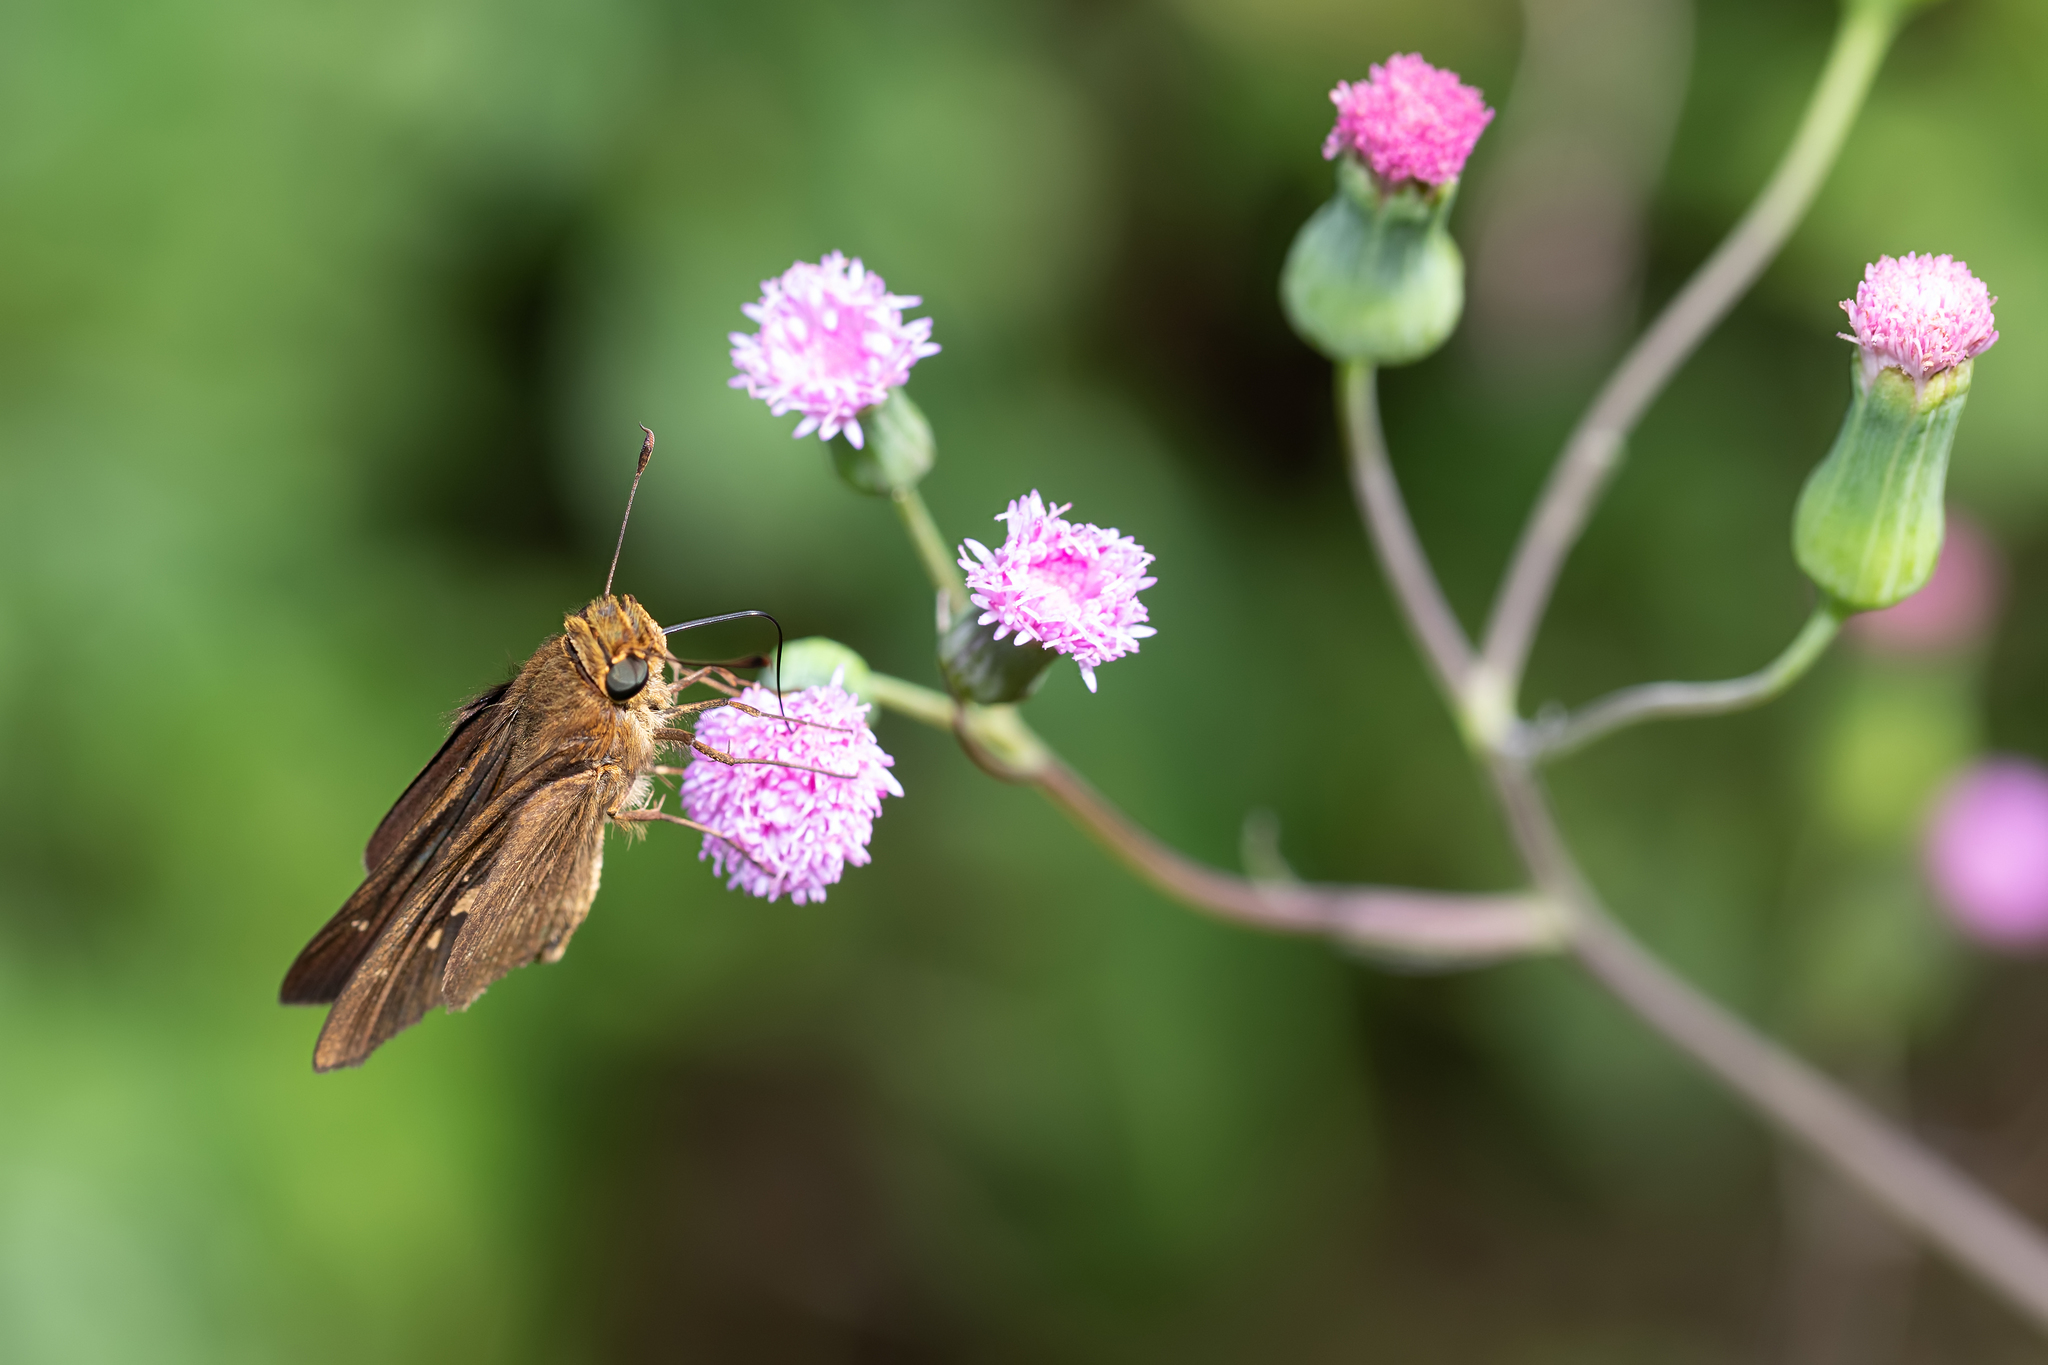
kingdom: Animalia
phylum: Arthropoda
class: Insecta
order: Lepidoptera
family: Hesperiidae
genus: Panoquina
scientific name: Panoquina ocola
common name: Ocola skipper
